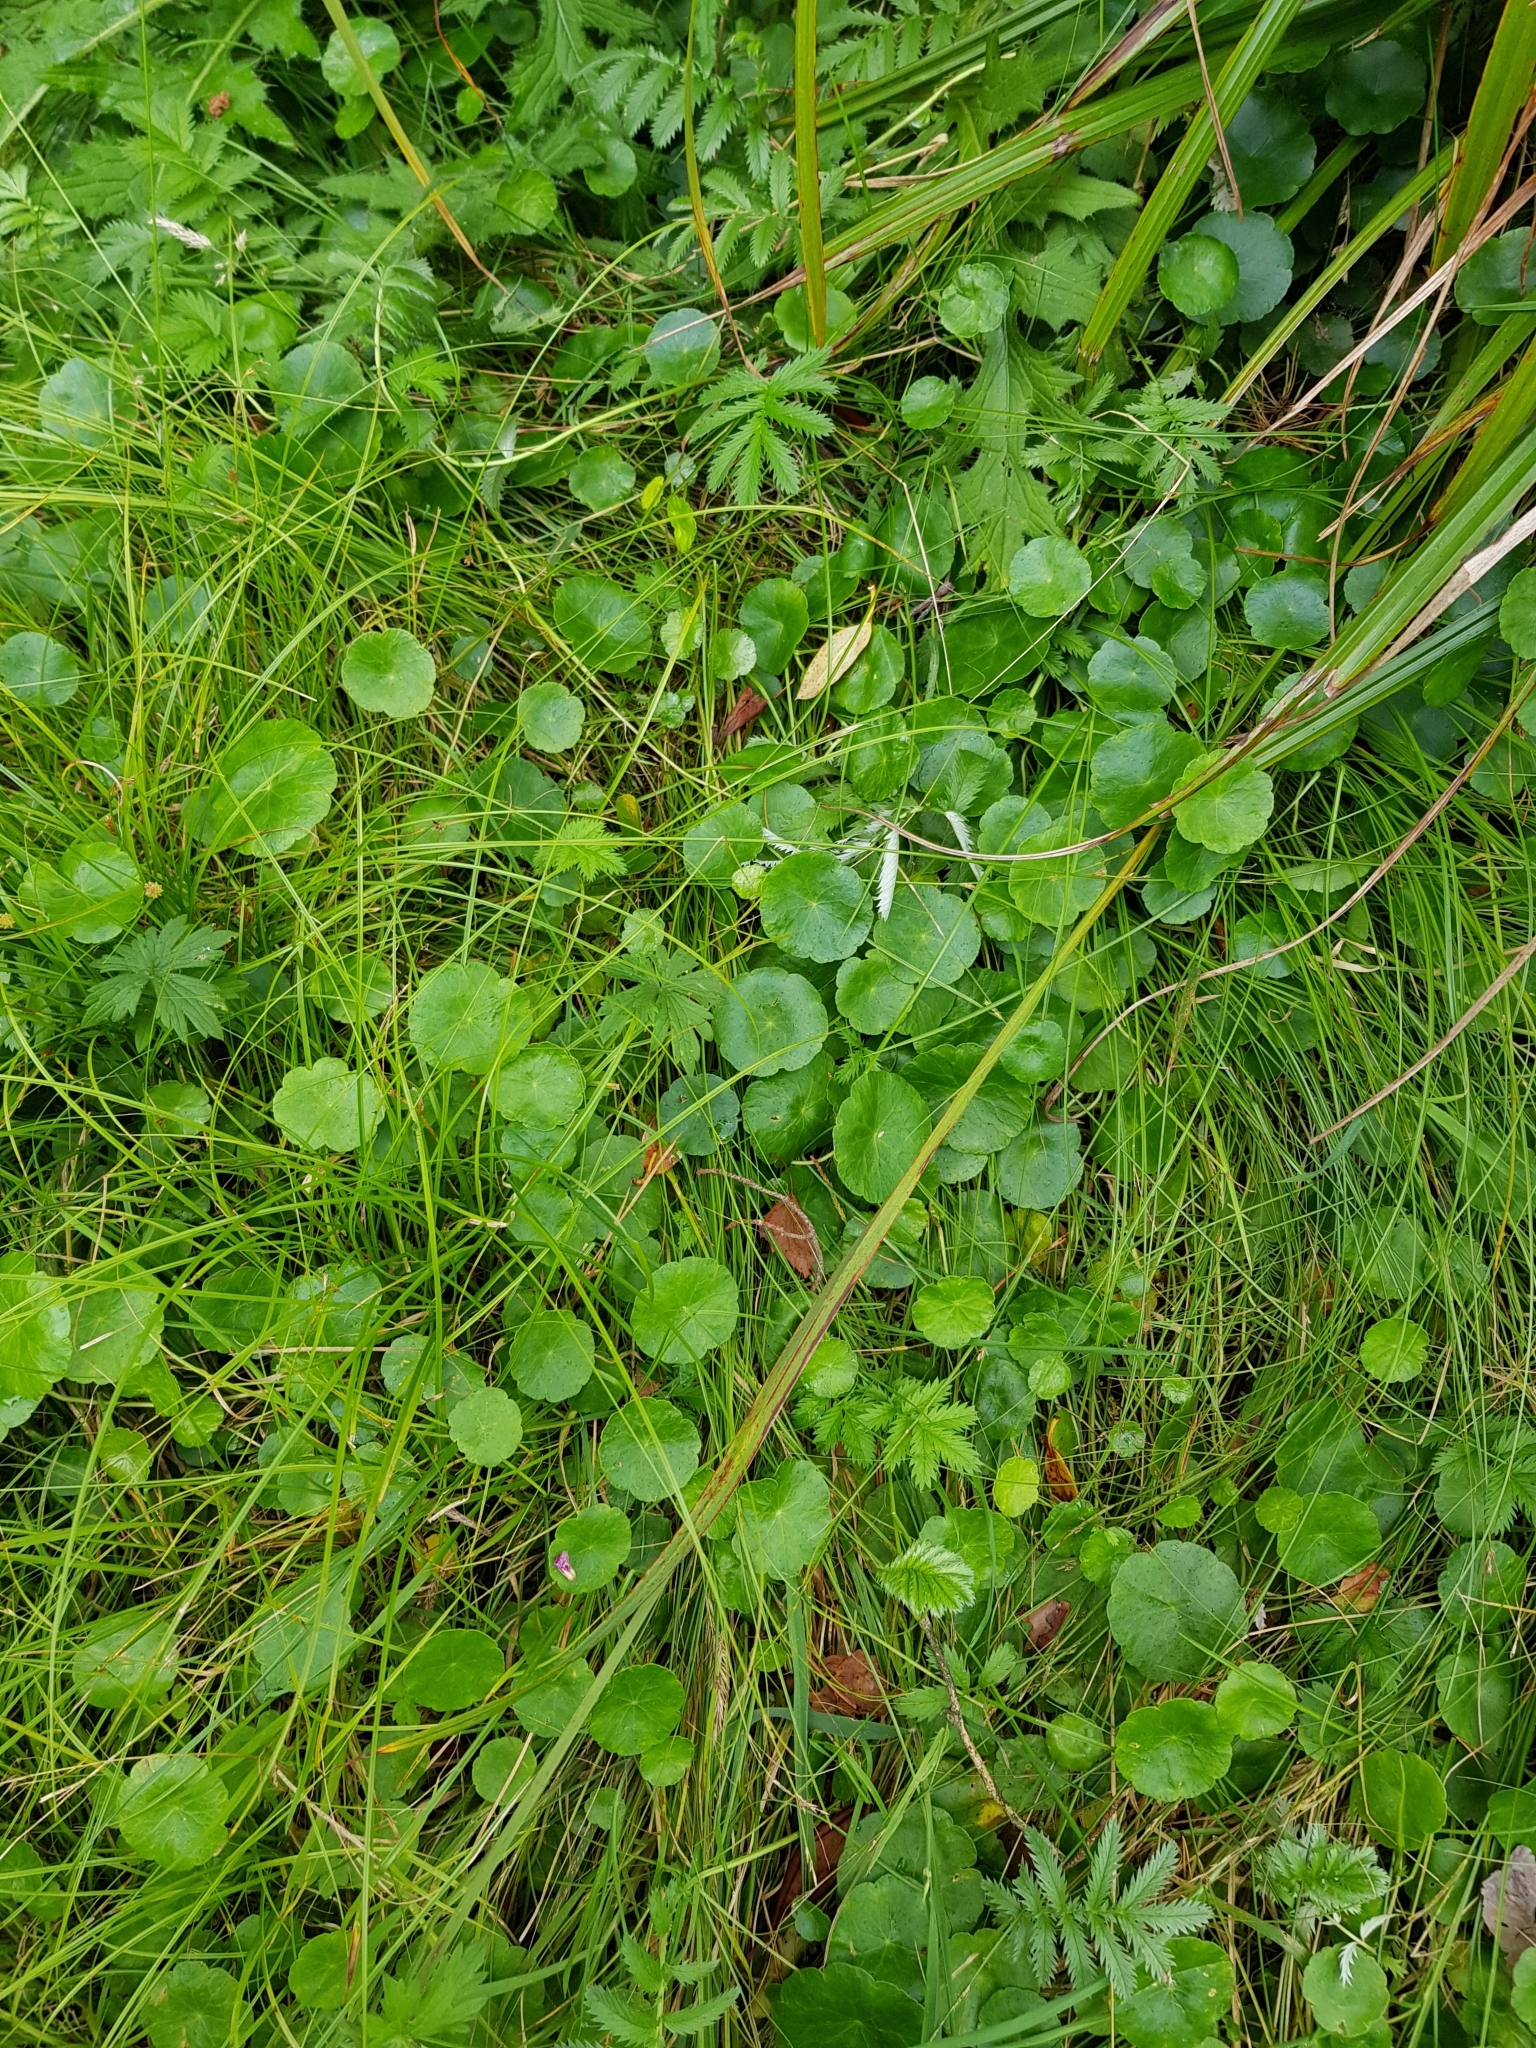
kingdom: Plantae
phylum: Tracheophyta
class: Magnoliopsida
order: Apiales
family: Araliaceae
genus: Hydrocotyle
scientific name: Hydrocotyle vulgaris
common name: Marsh pennywort
